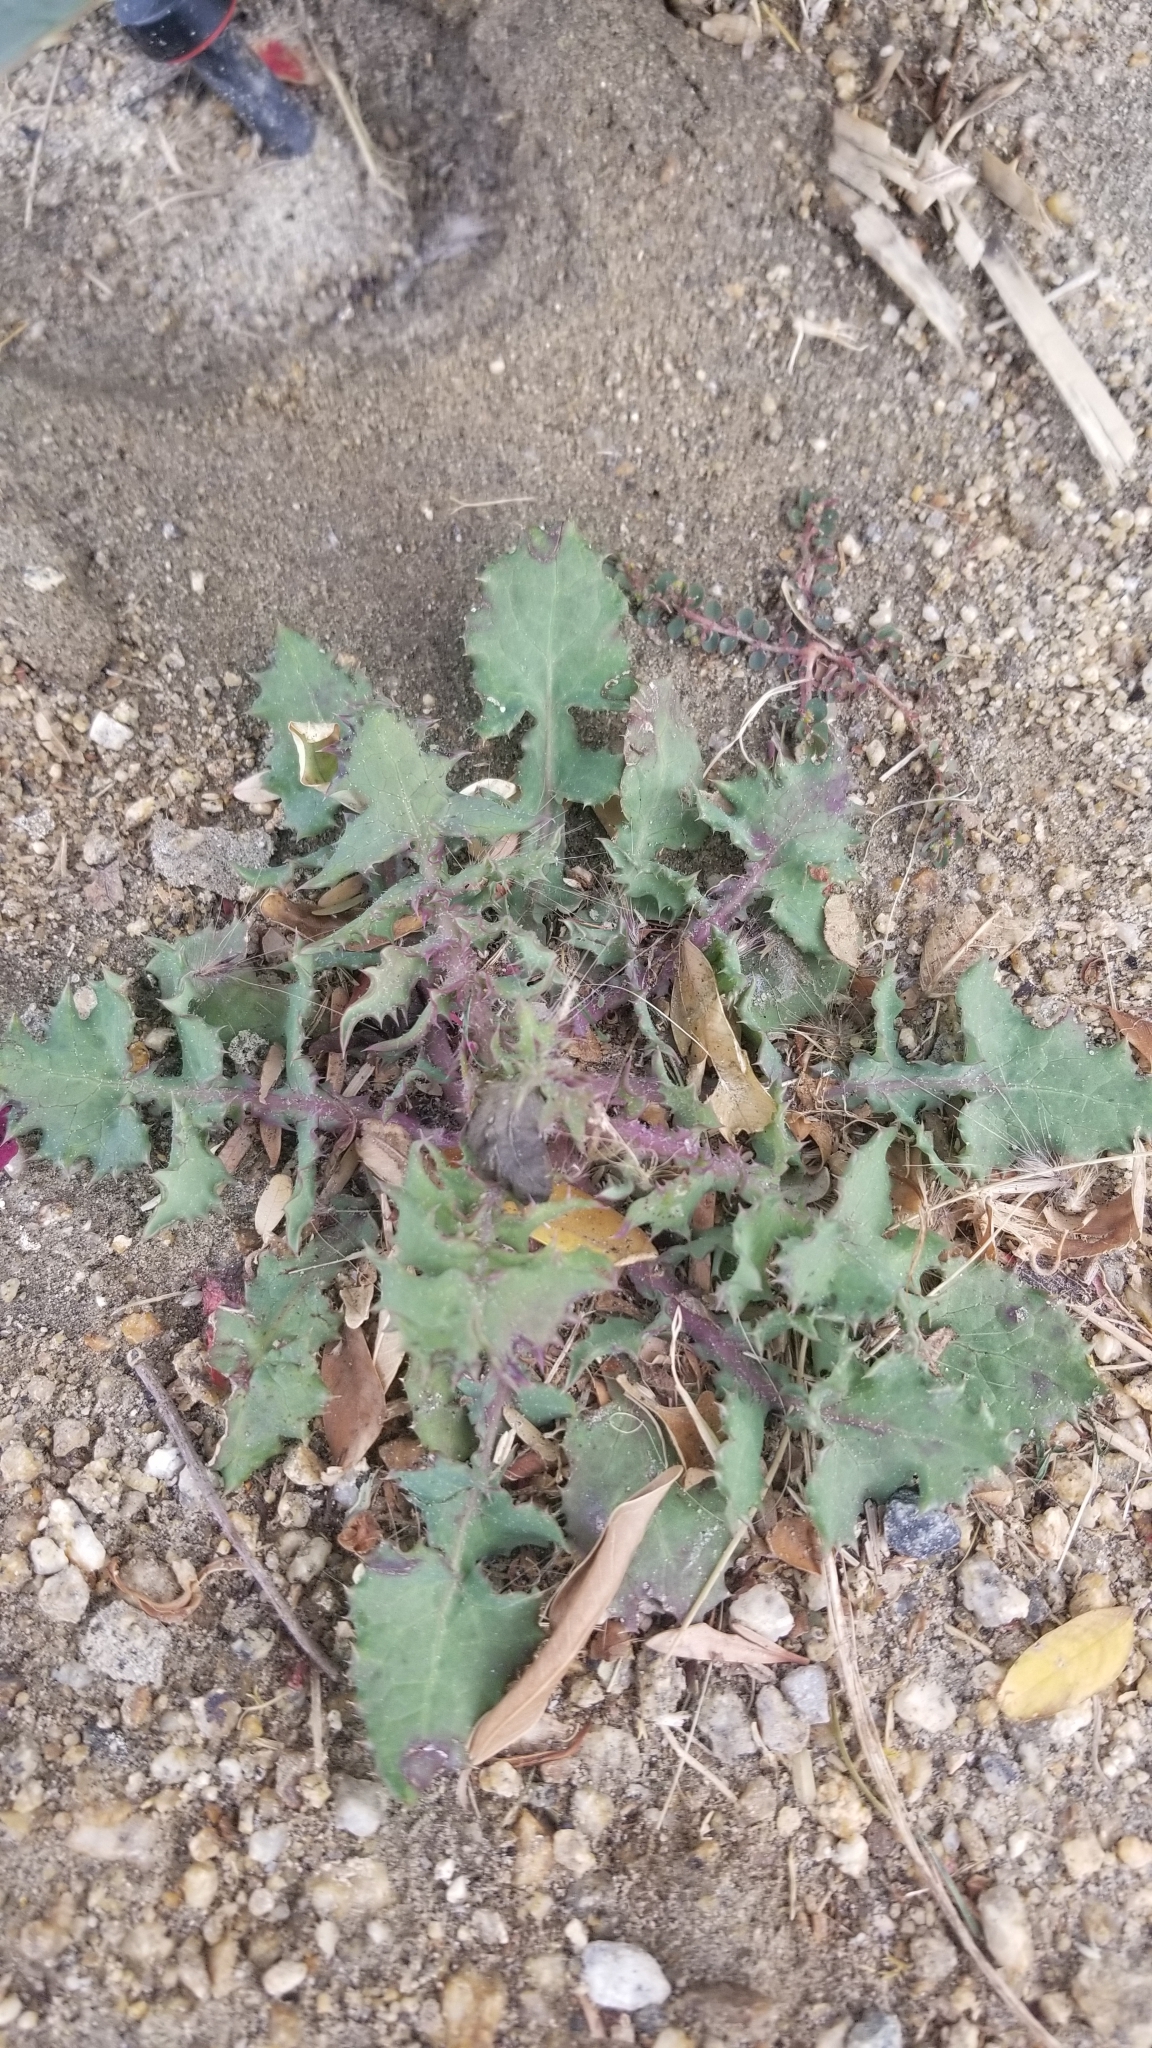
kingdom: Plantae
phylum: Tracheophyta
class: Magnoliopsida
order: Asterales
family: Asteraceae
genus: Sonchus
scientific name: Sonchus oleraceus
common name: Common sowthistle
